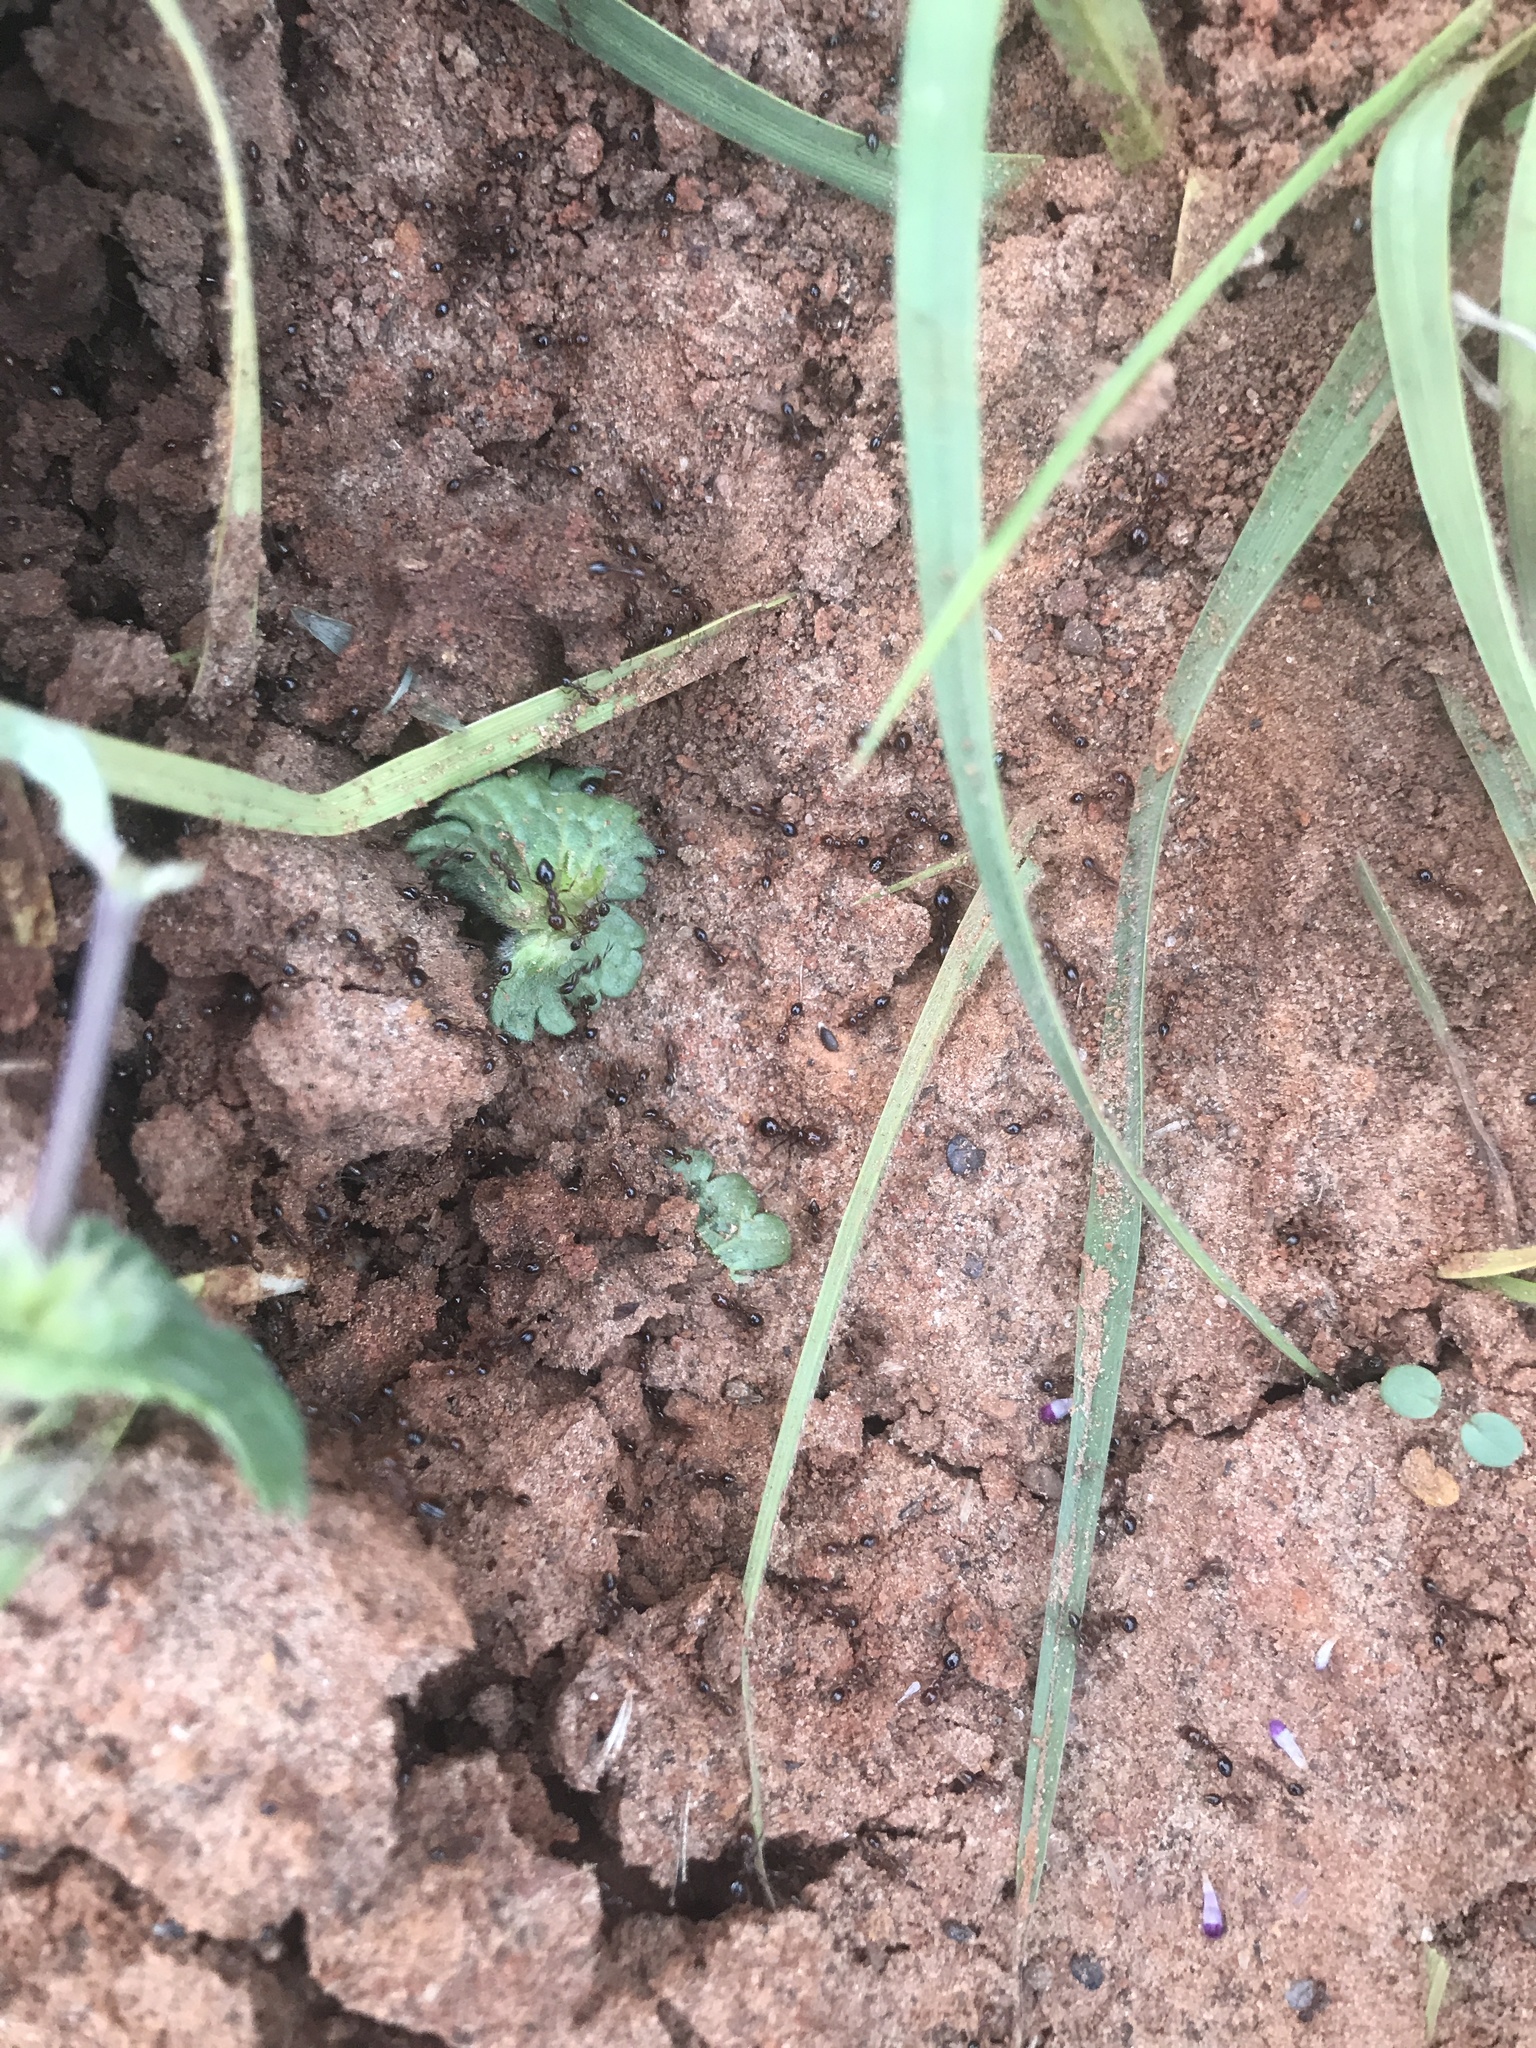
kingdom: Animalia
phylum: Arthropoda
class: Insecta
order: Hymenoptera
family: Formicidae
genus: Solenopsis
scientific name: Solenopsis invicta
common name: Red imported fire ant
